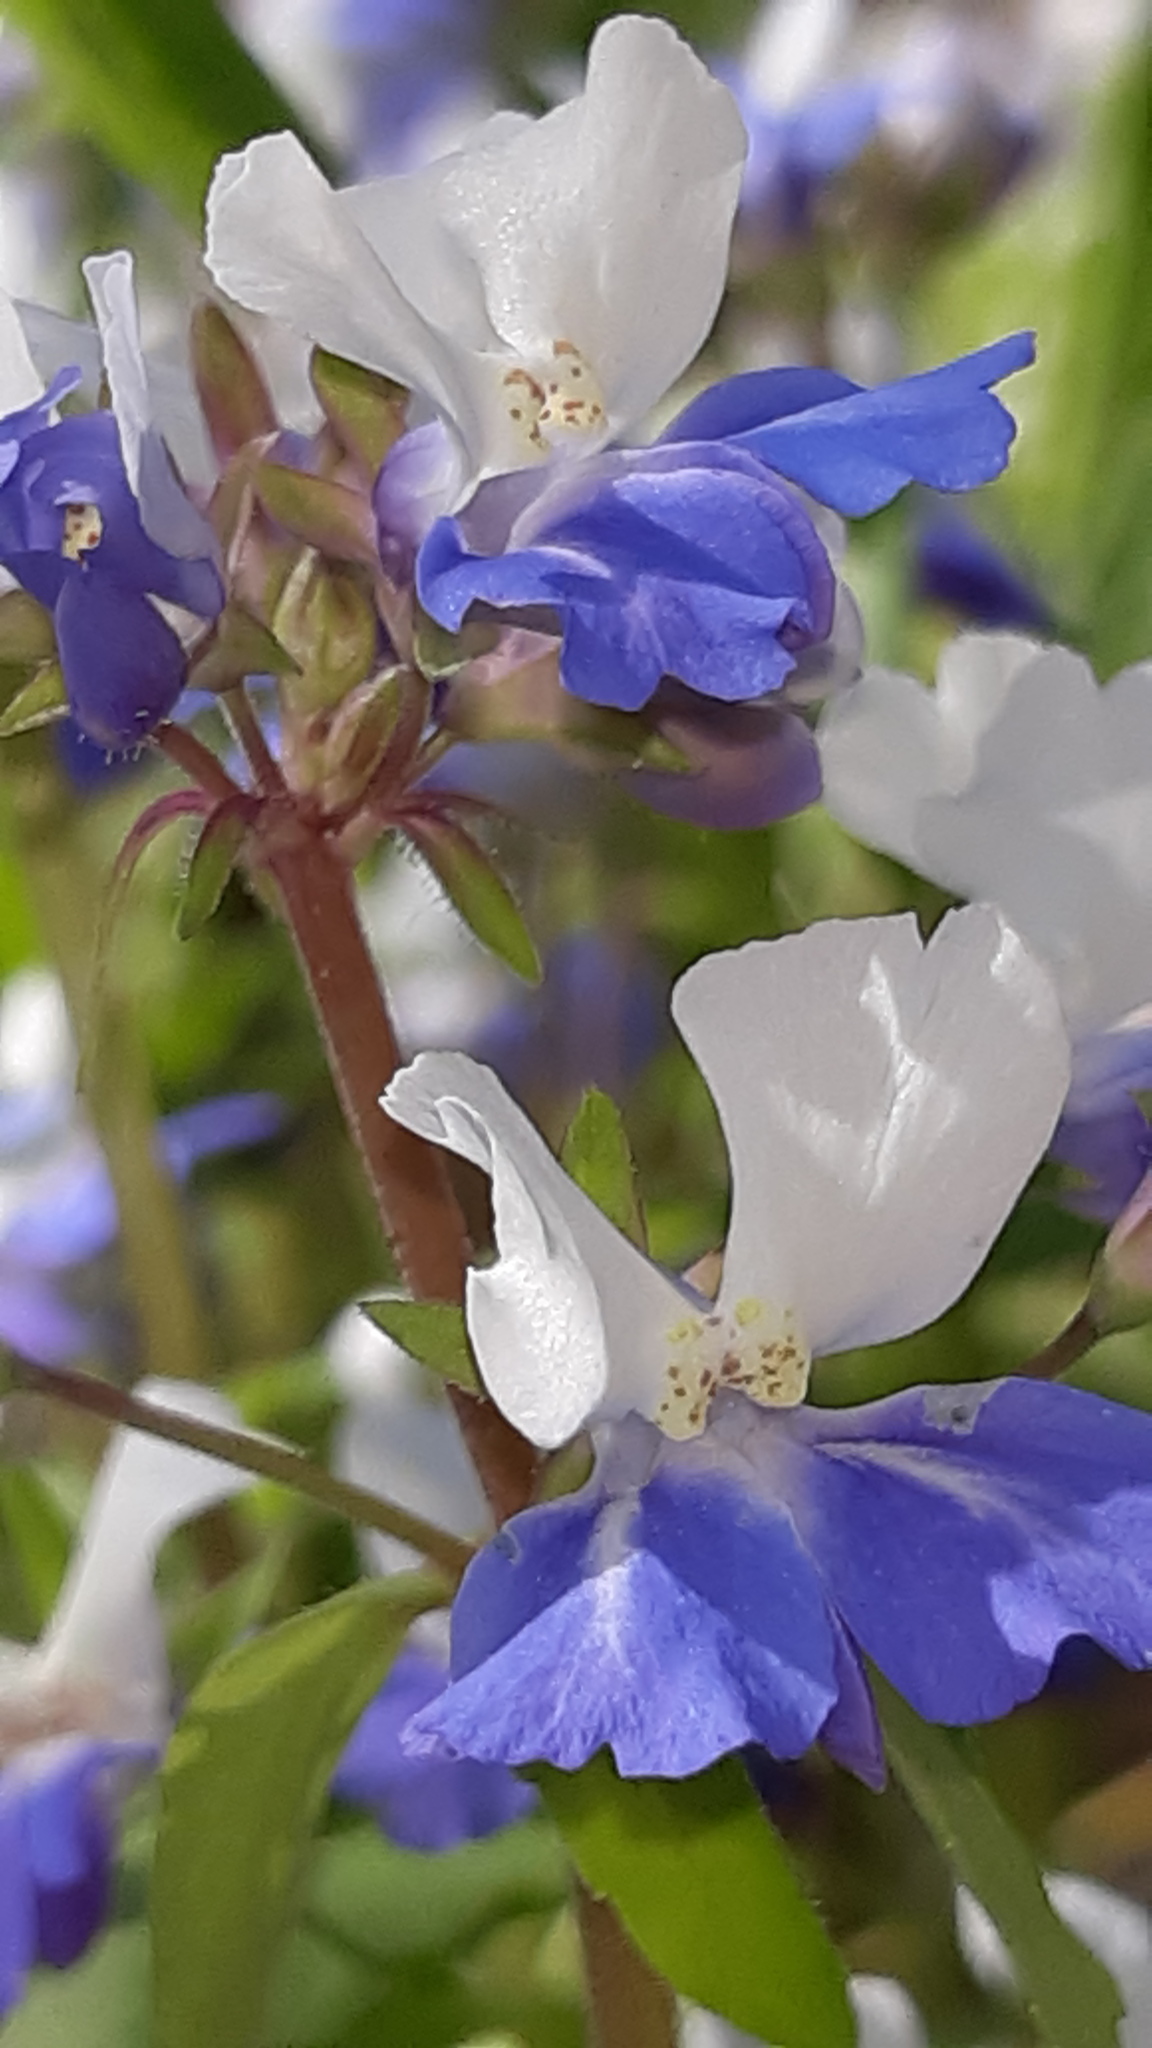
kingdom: Plantae
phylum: Tracheophyta
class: Magnoliopsida
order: Lamiales
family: Plantaginaceae
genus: Collinsia
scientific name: Collinsia verna
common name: Broad-leaved collinsia
